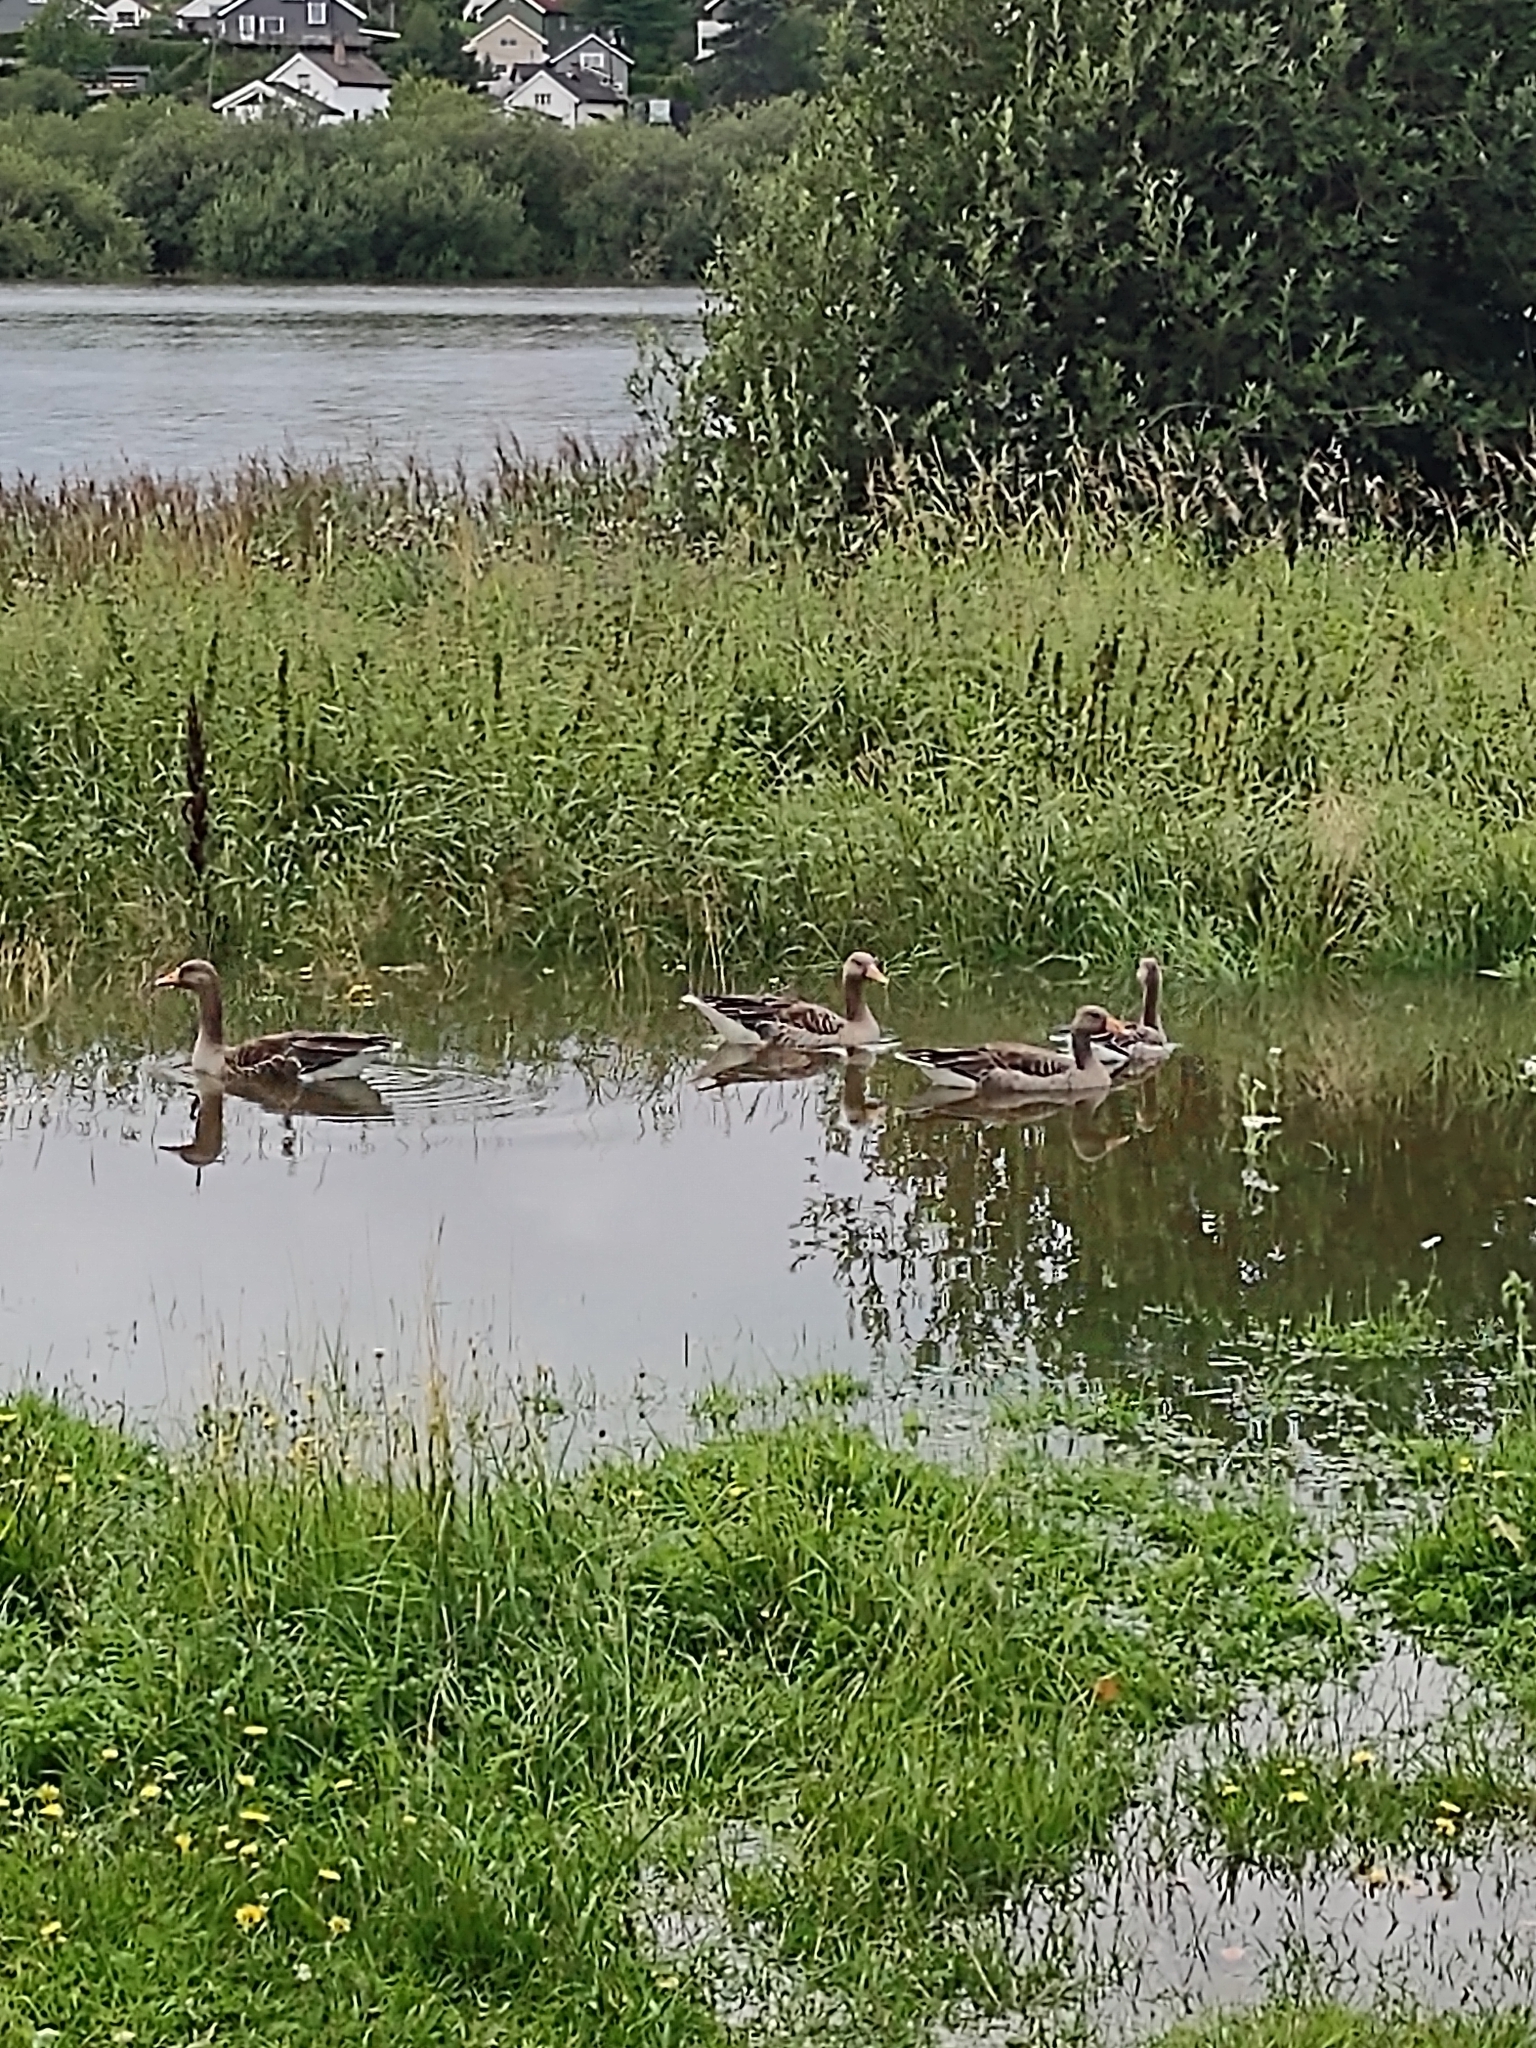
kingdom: Animalia
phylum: Chordata
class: Aves
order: Anseriformes
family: Anatidae
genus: Anser
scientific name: Anser anser
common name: Greylag goose
